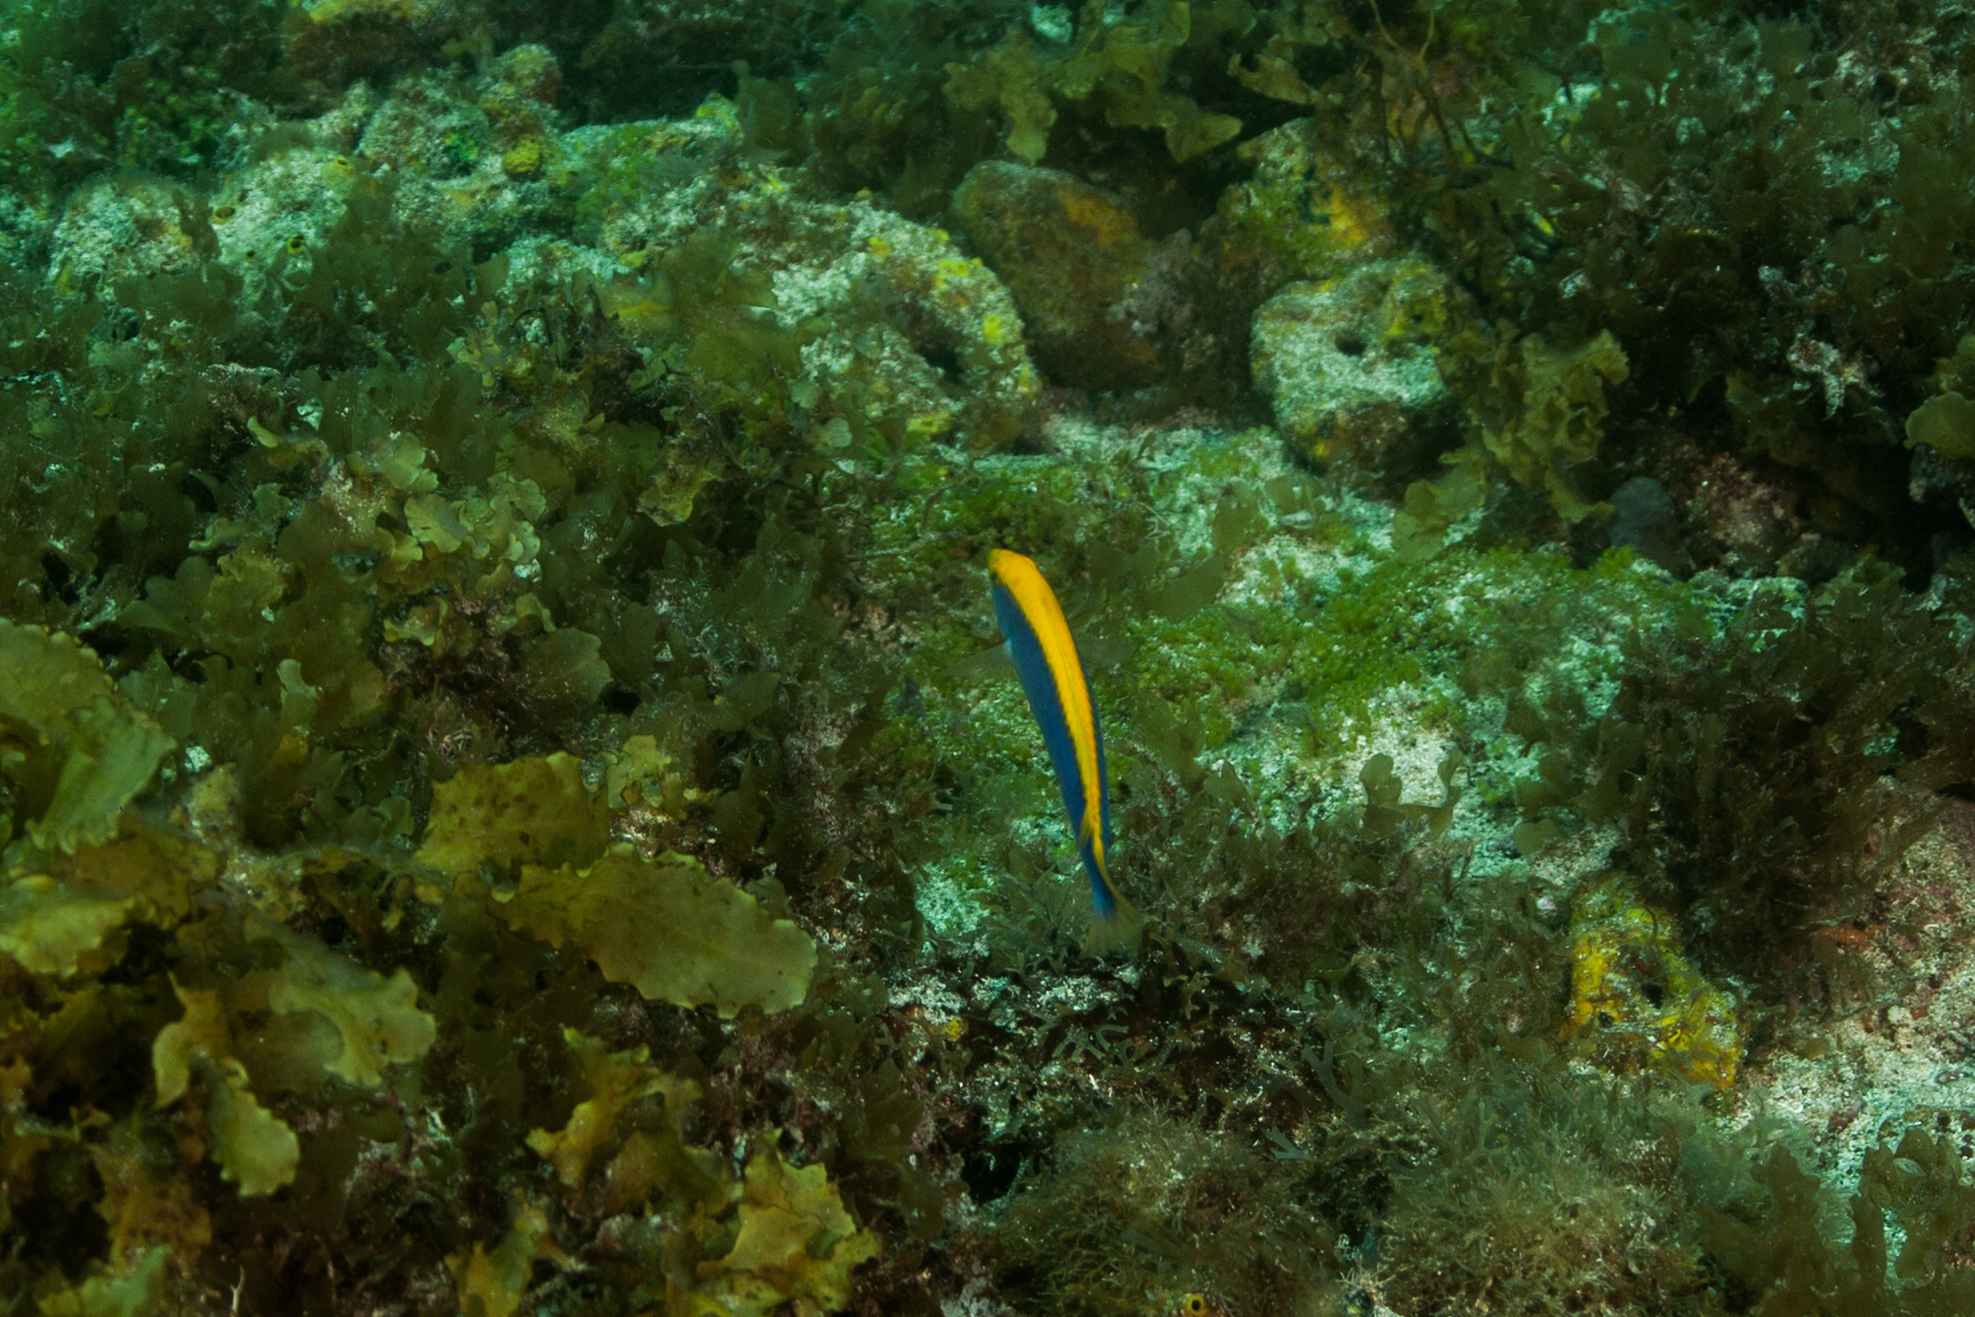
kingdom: Animalia
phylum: Chordata
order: Perciformes
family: Labridae
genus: Halichoeres
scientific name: Halichoeres dimidiatus
